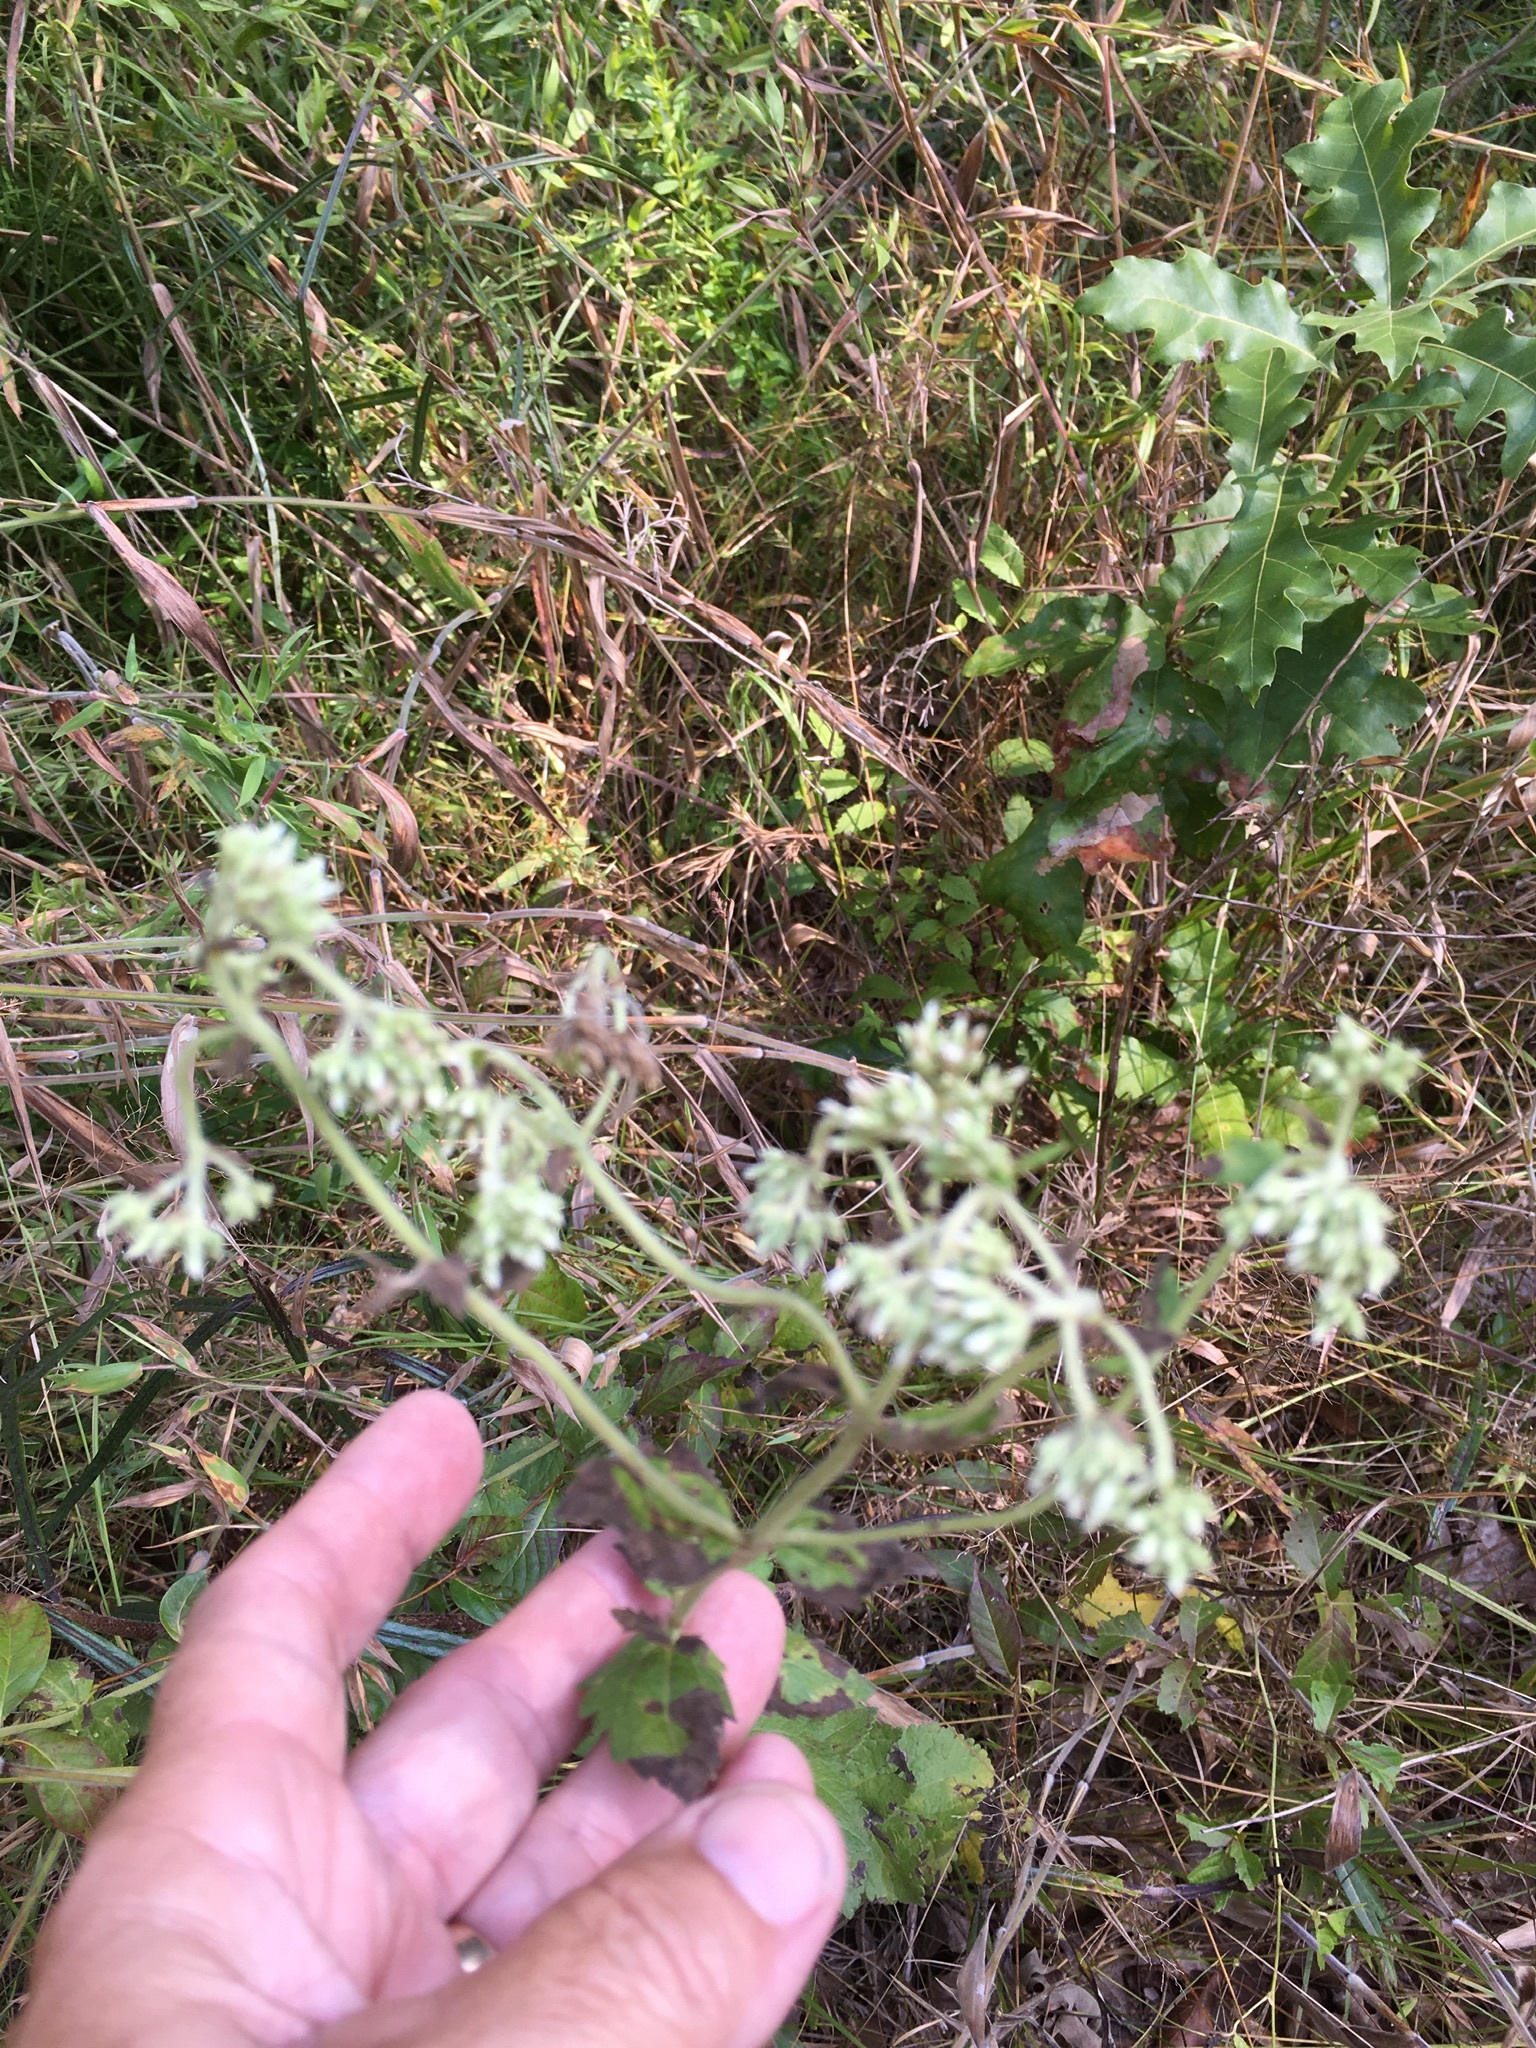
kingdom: Plantae
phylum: Tracheophyta
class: Magnoliopsida
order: Asterales
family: Asteraceae
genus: Eupatorium
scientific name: Eupatorium rotundifolium
